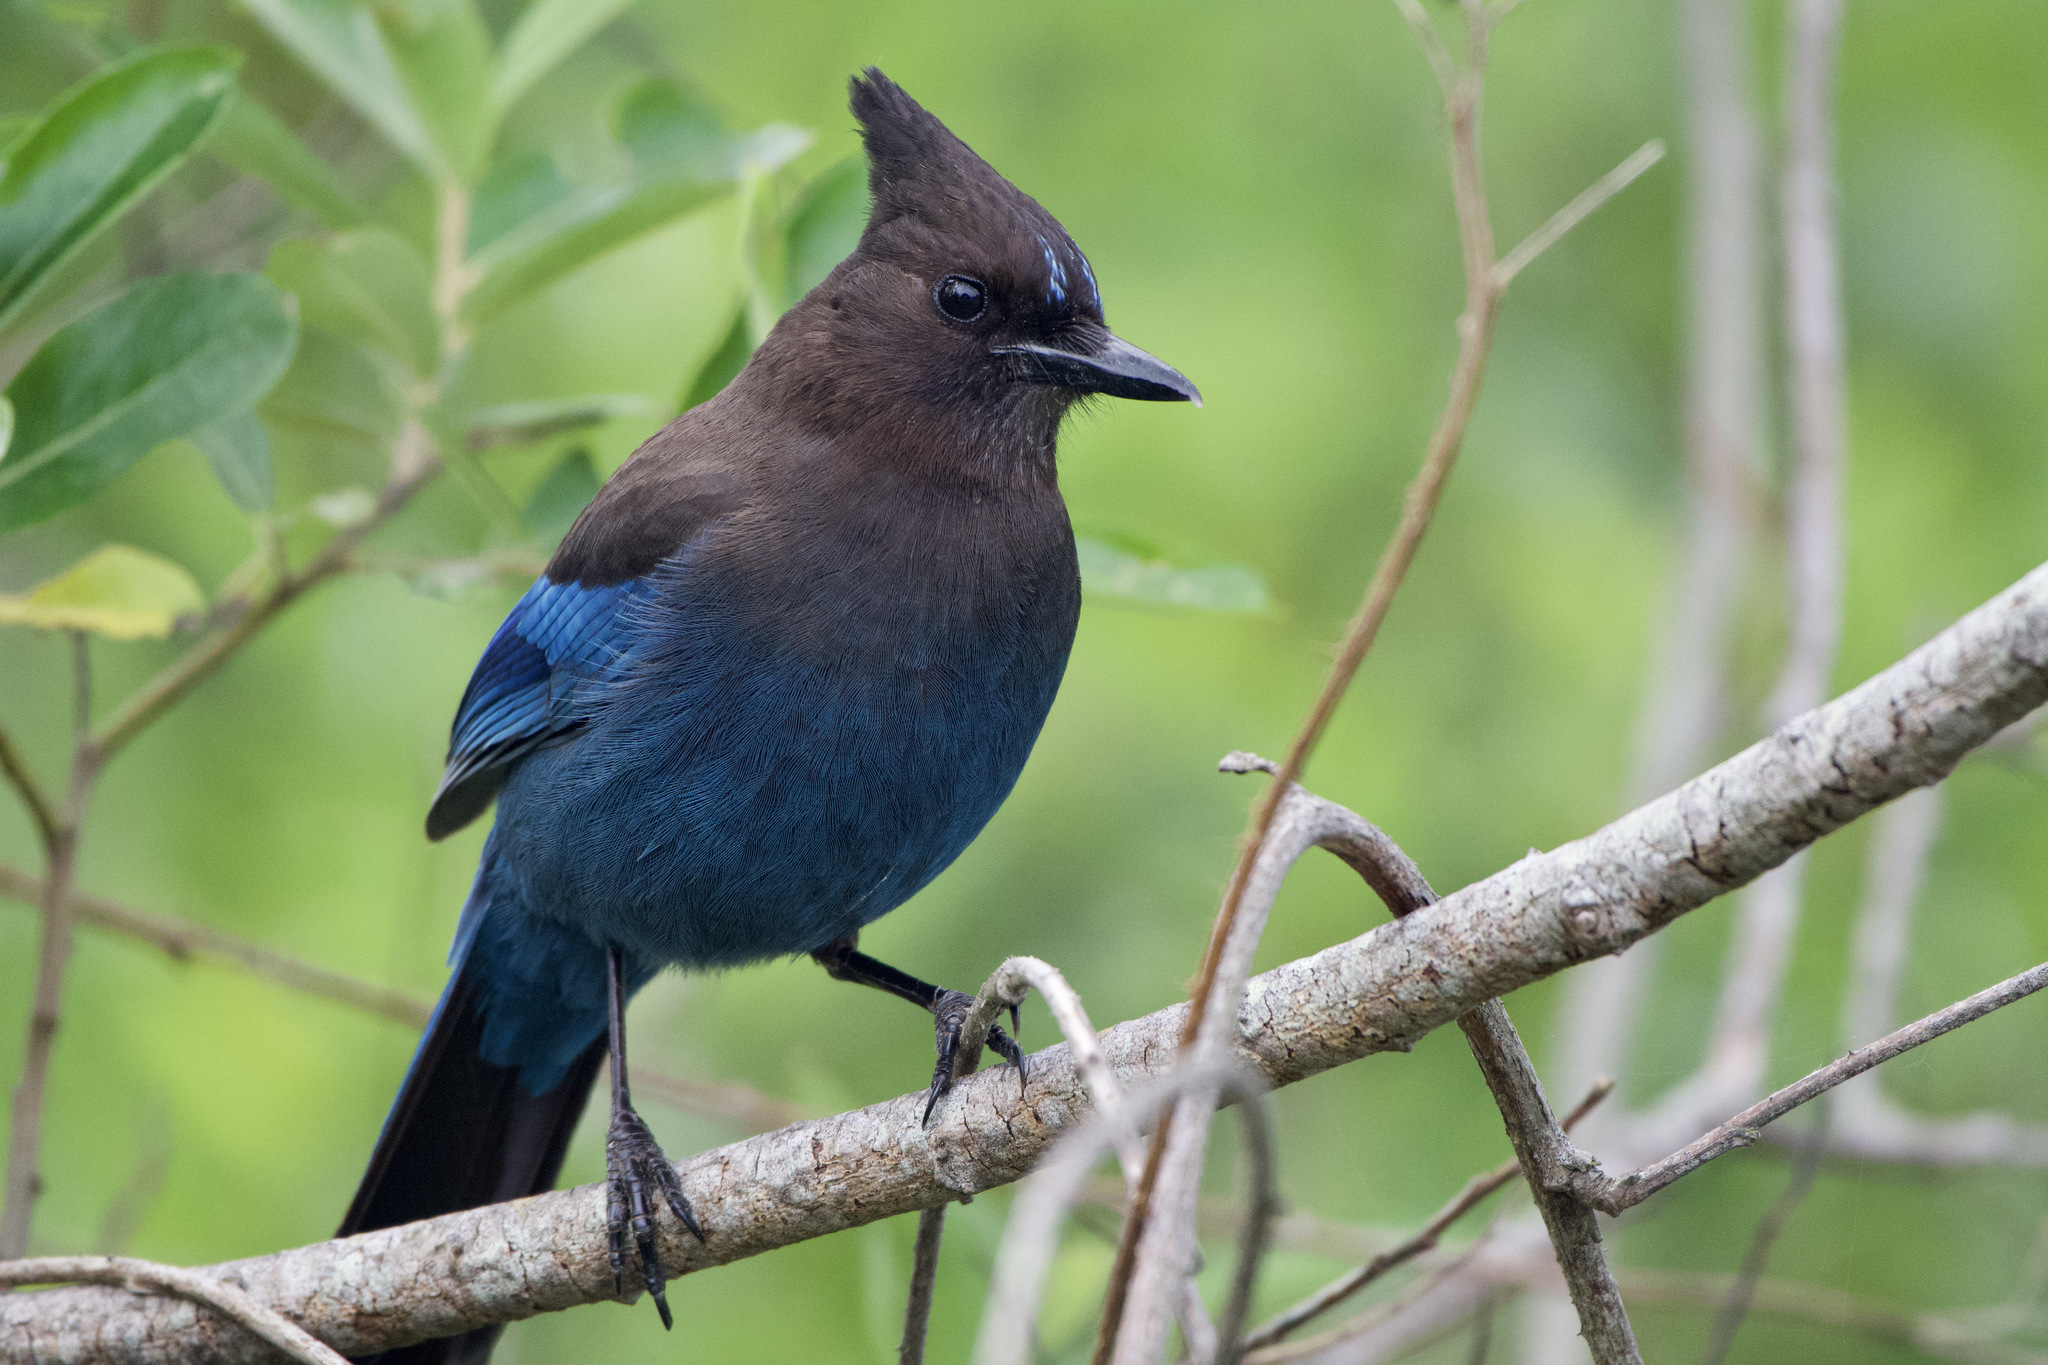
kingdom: Animalia
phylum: Chordata
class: Aves
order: Passeriformes
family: Corvidae
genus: Cyanocitta
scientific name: Cyanocitta stelleri
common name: Steller's jay
